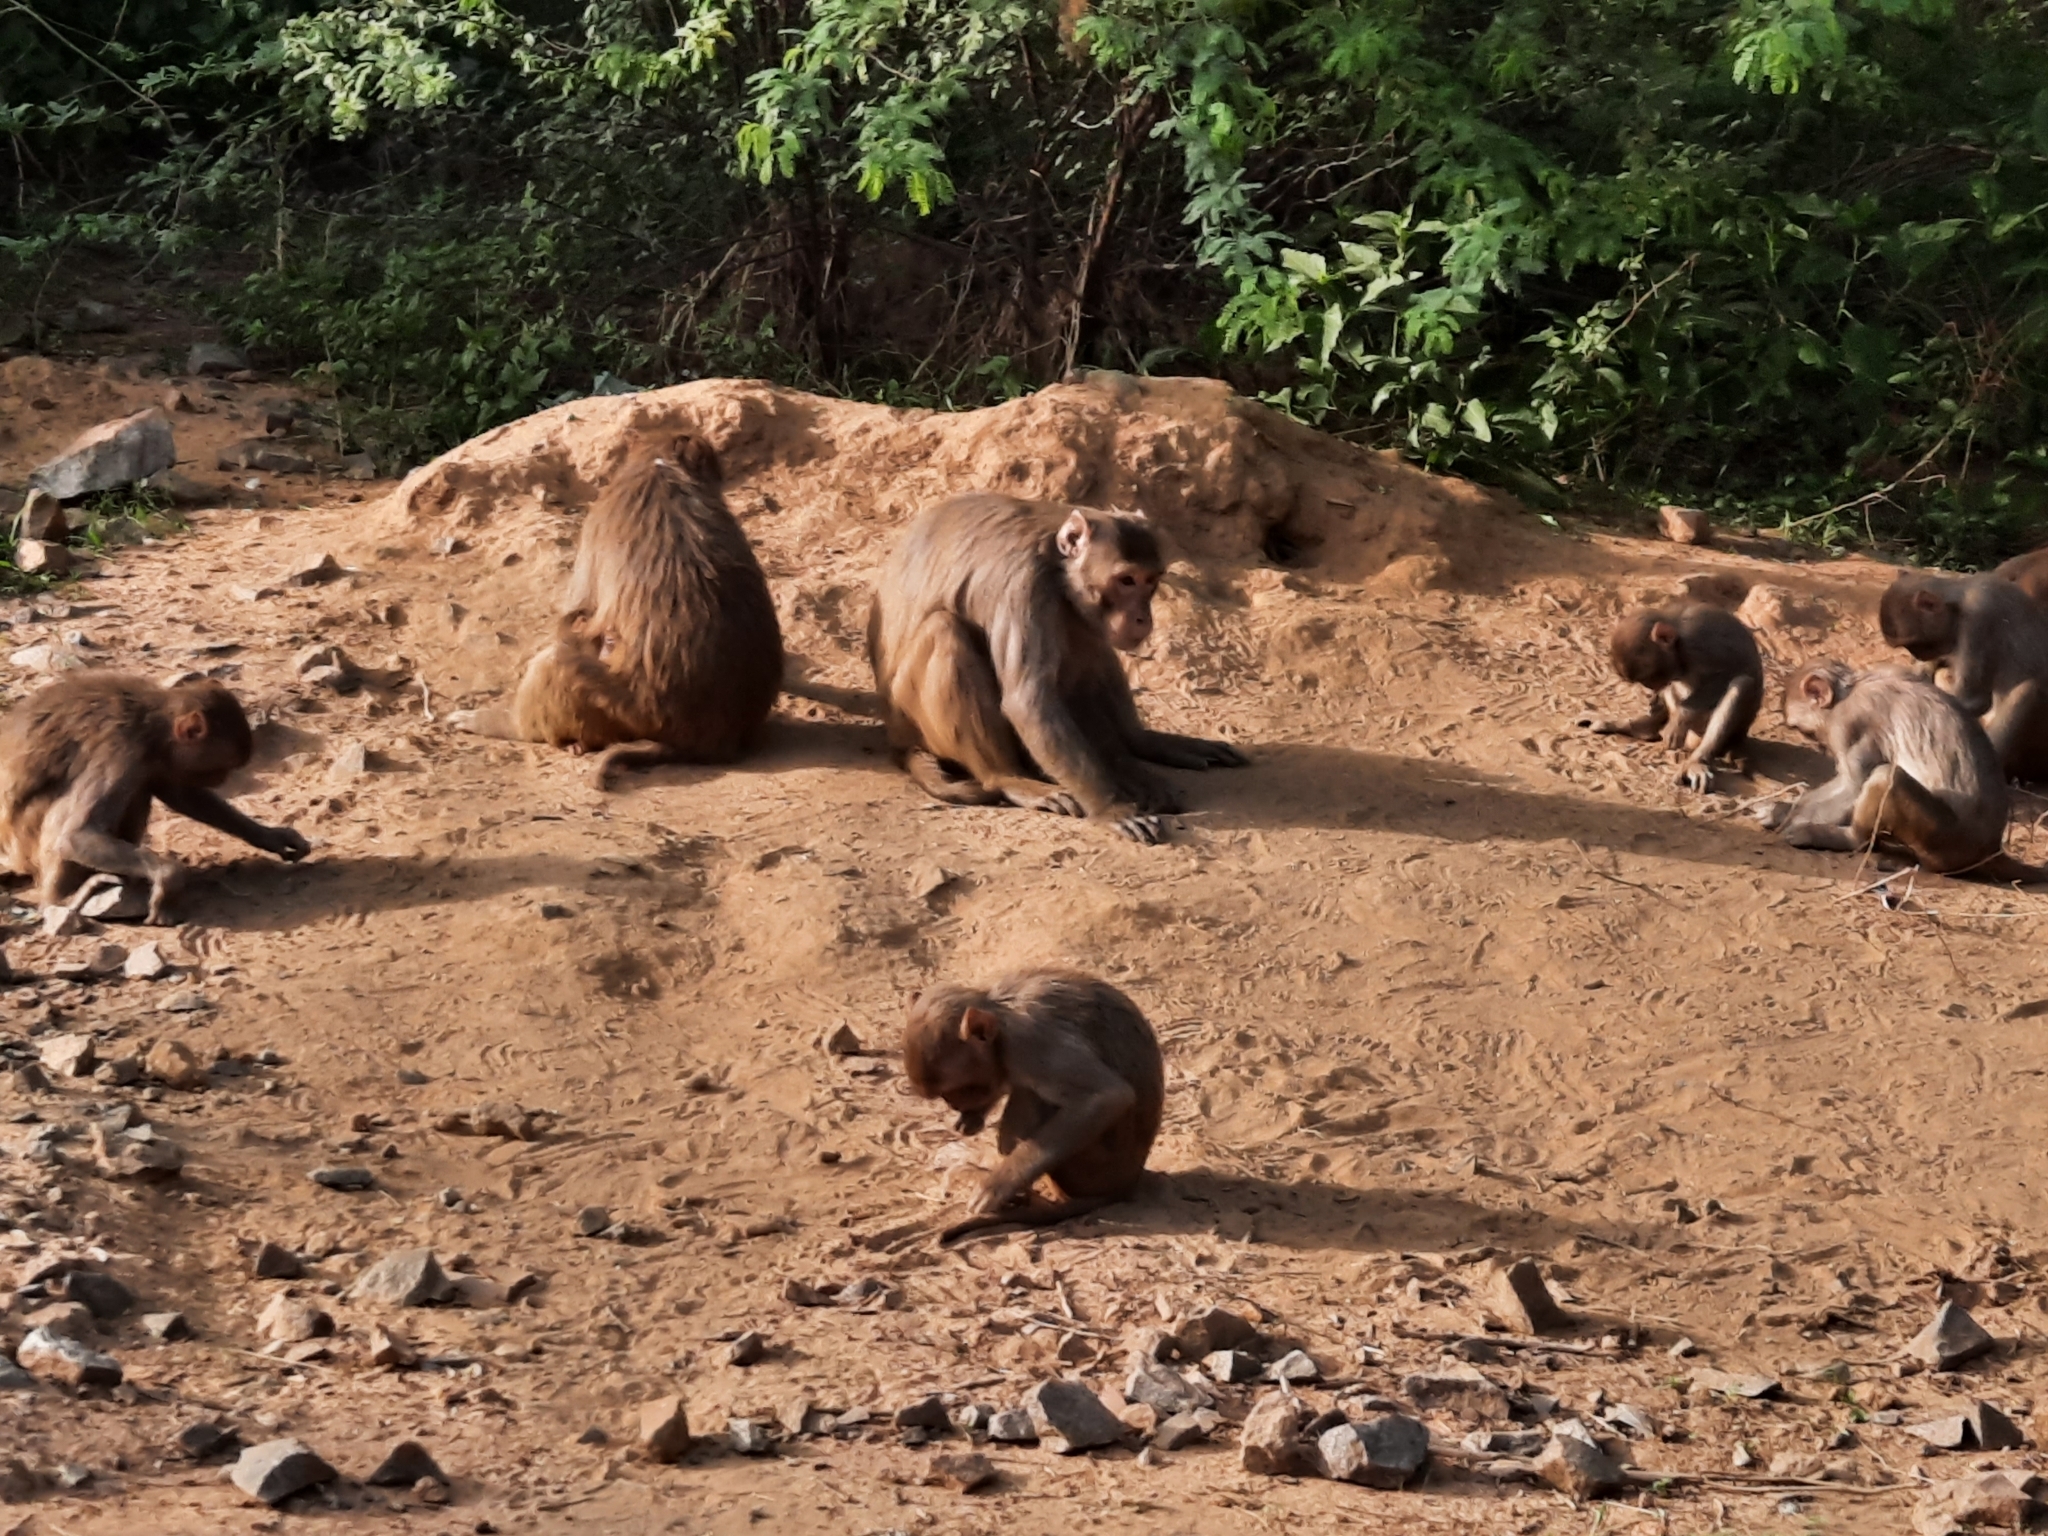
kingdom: Animalia
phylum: Chordata
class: Mammalia
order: Primates
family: Cercopithecidae
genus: Macaca
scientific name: Macaca mulatta
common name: Rhesus monkey
